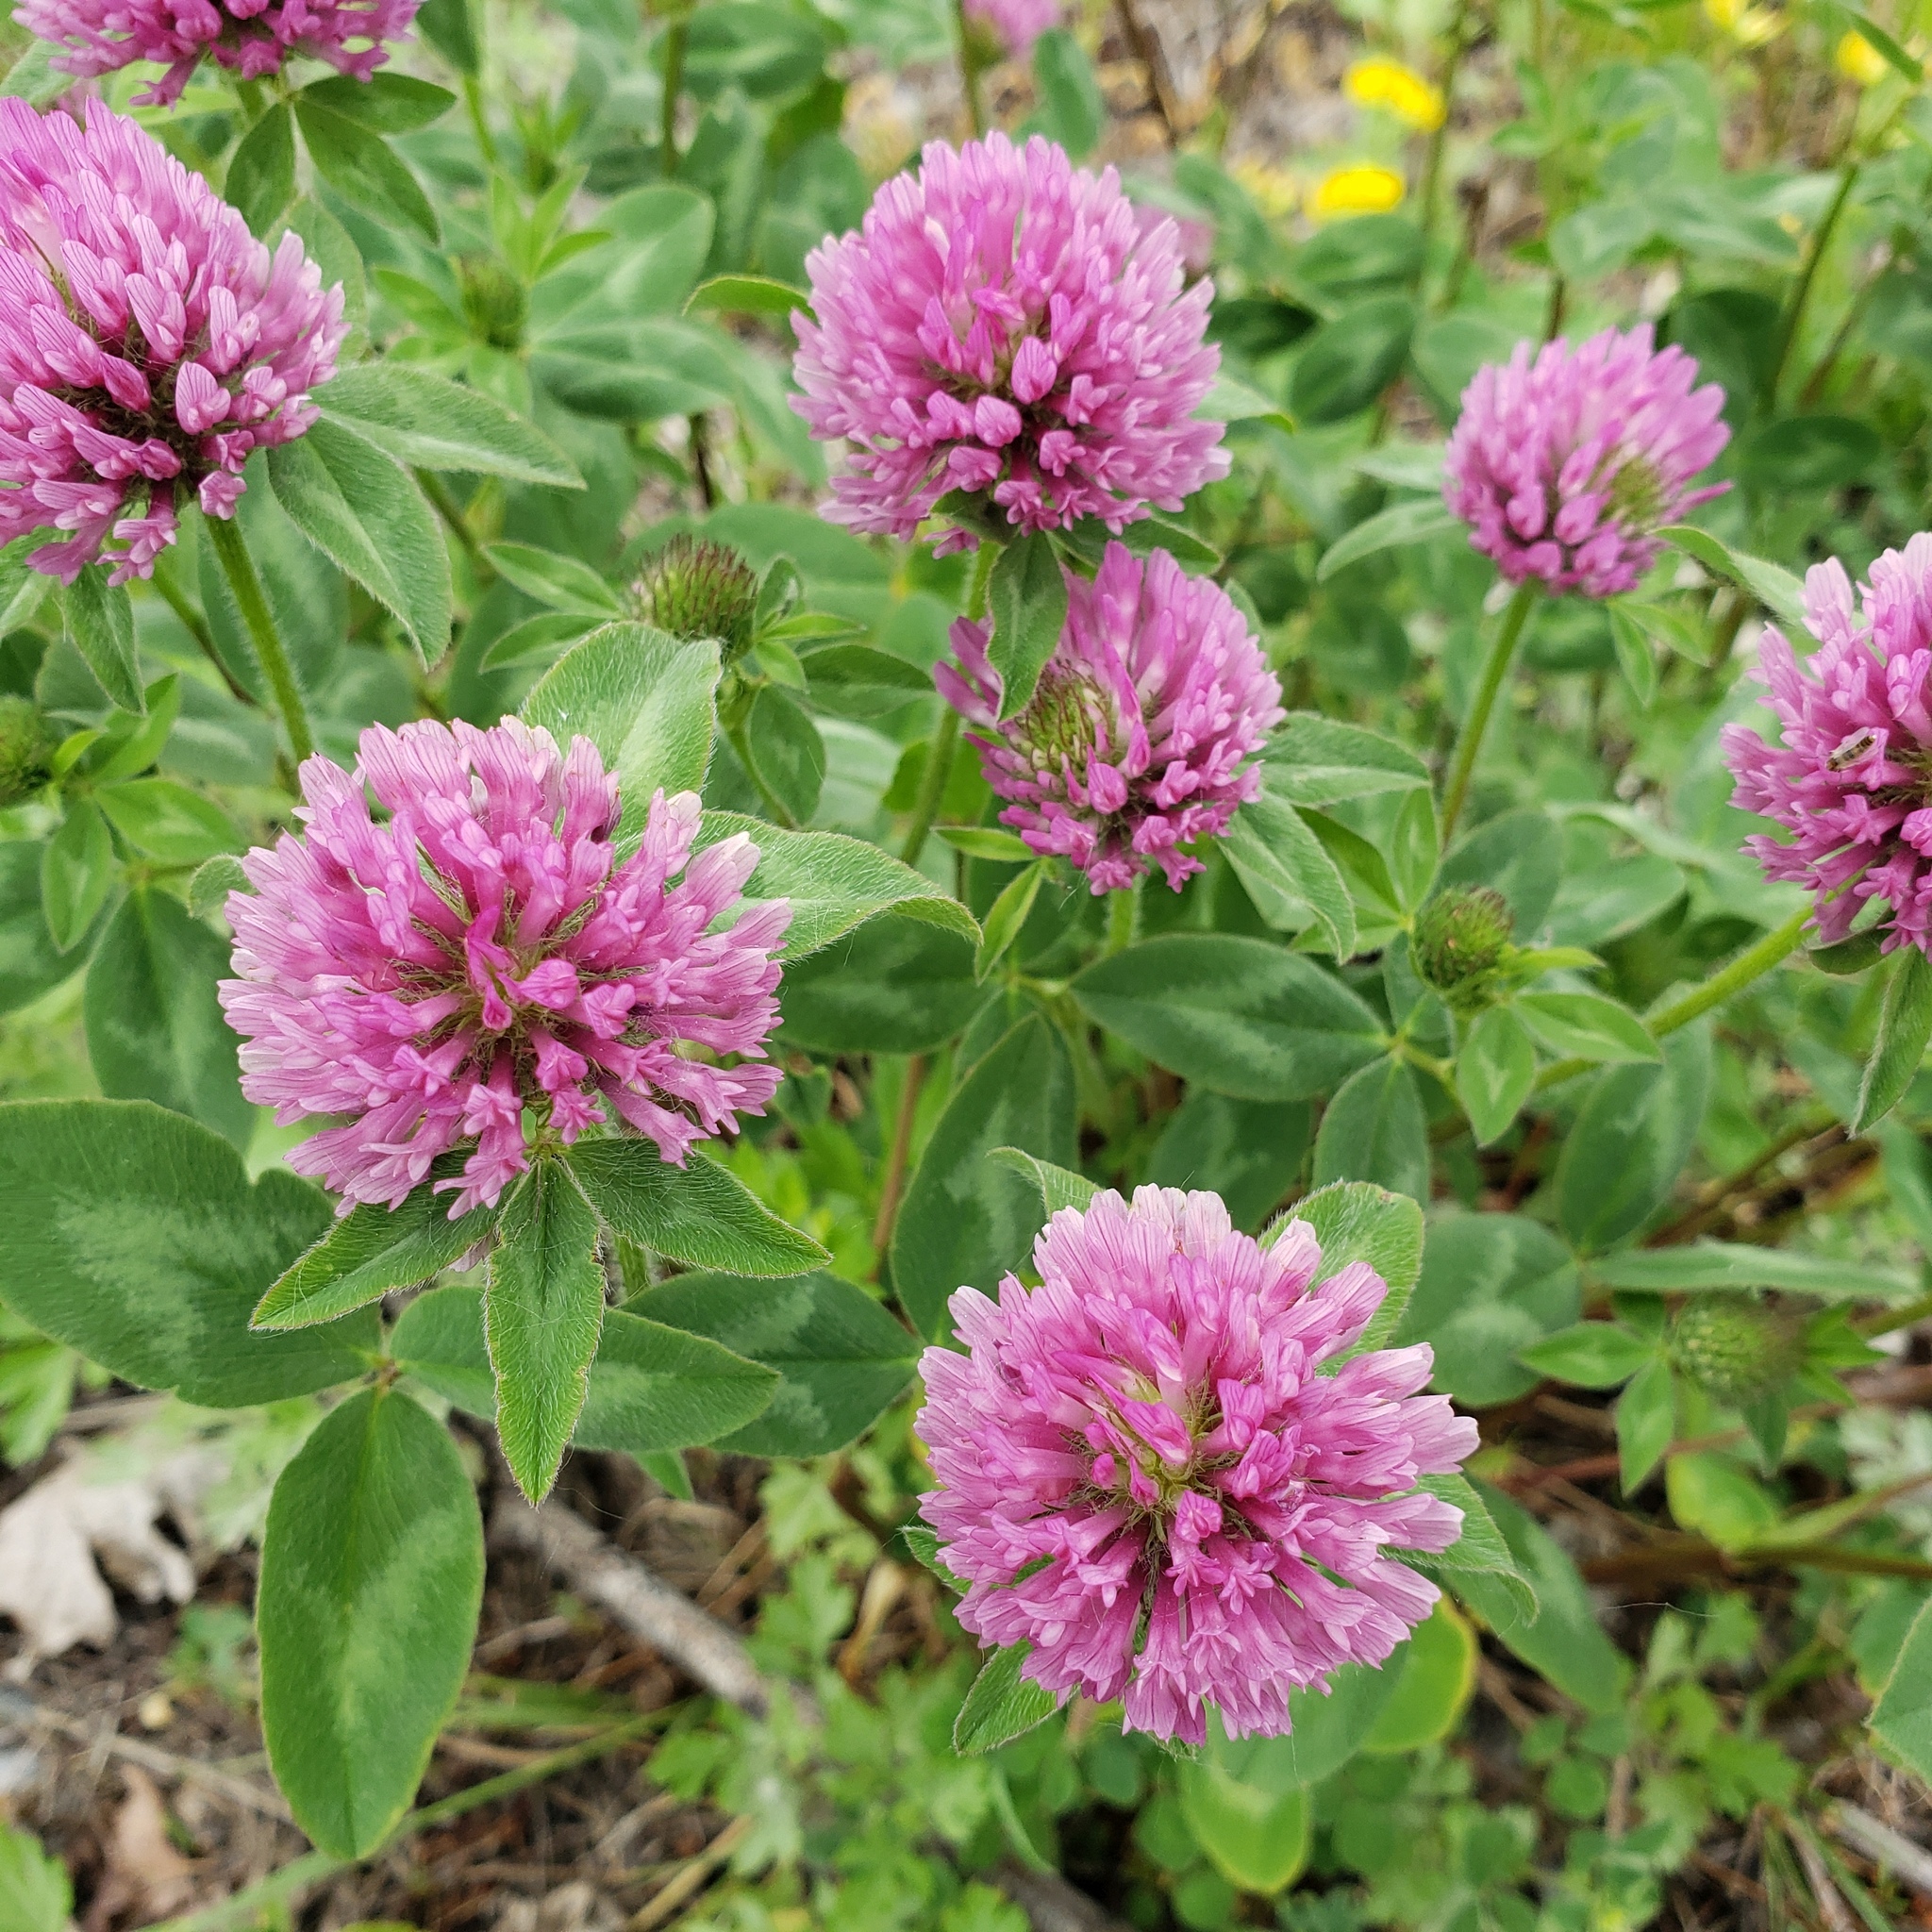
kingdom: Plantae
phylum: Tracheophyta
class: Magnoliopsida
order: Fabales
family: Fabaceae
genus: Trifolium
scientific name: Trifolium pratense
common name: Red clover
